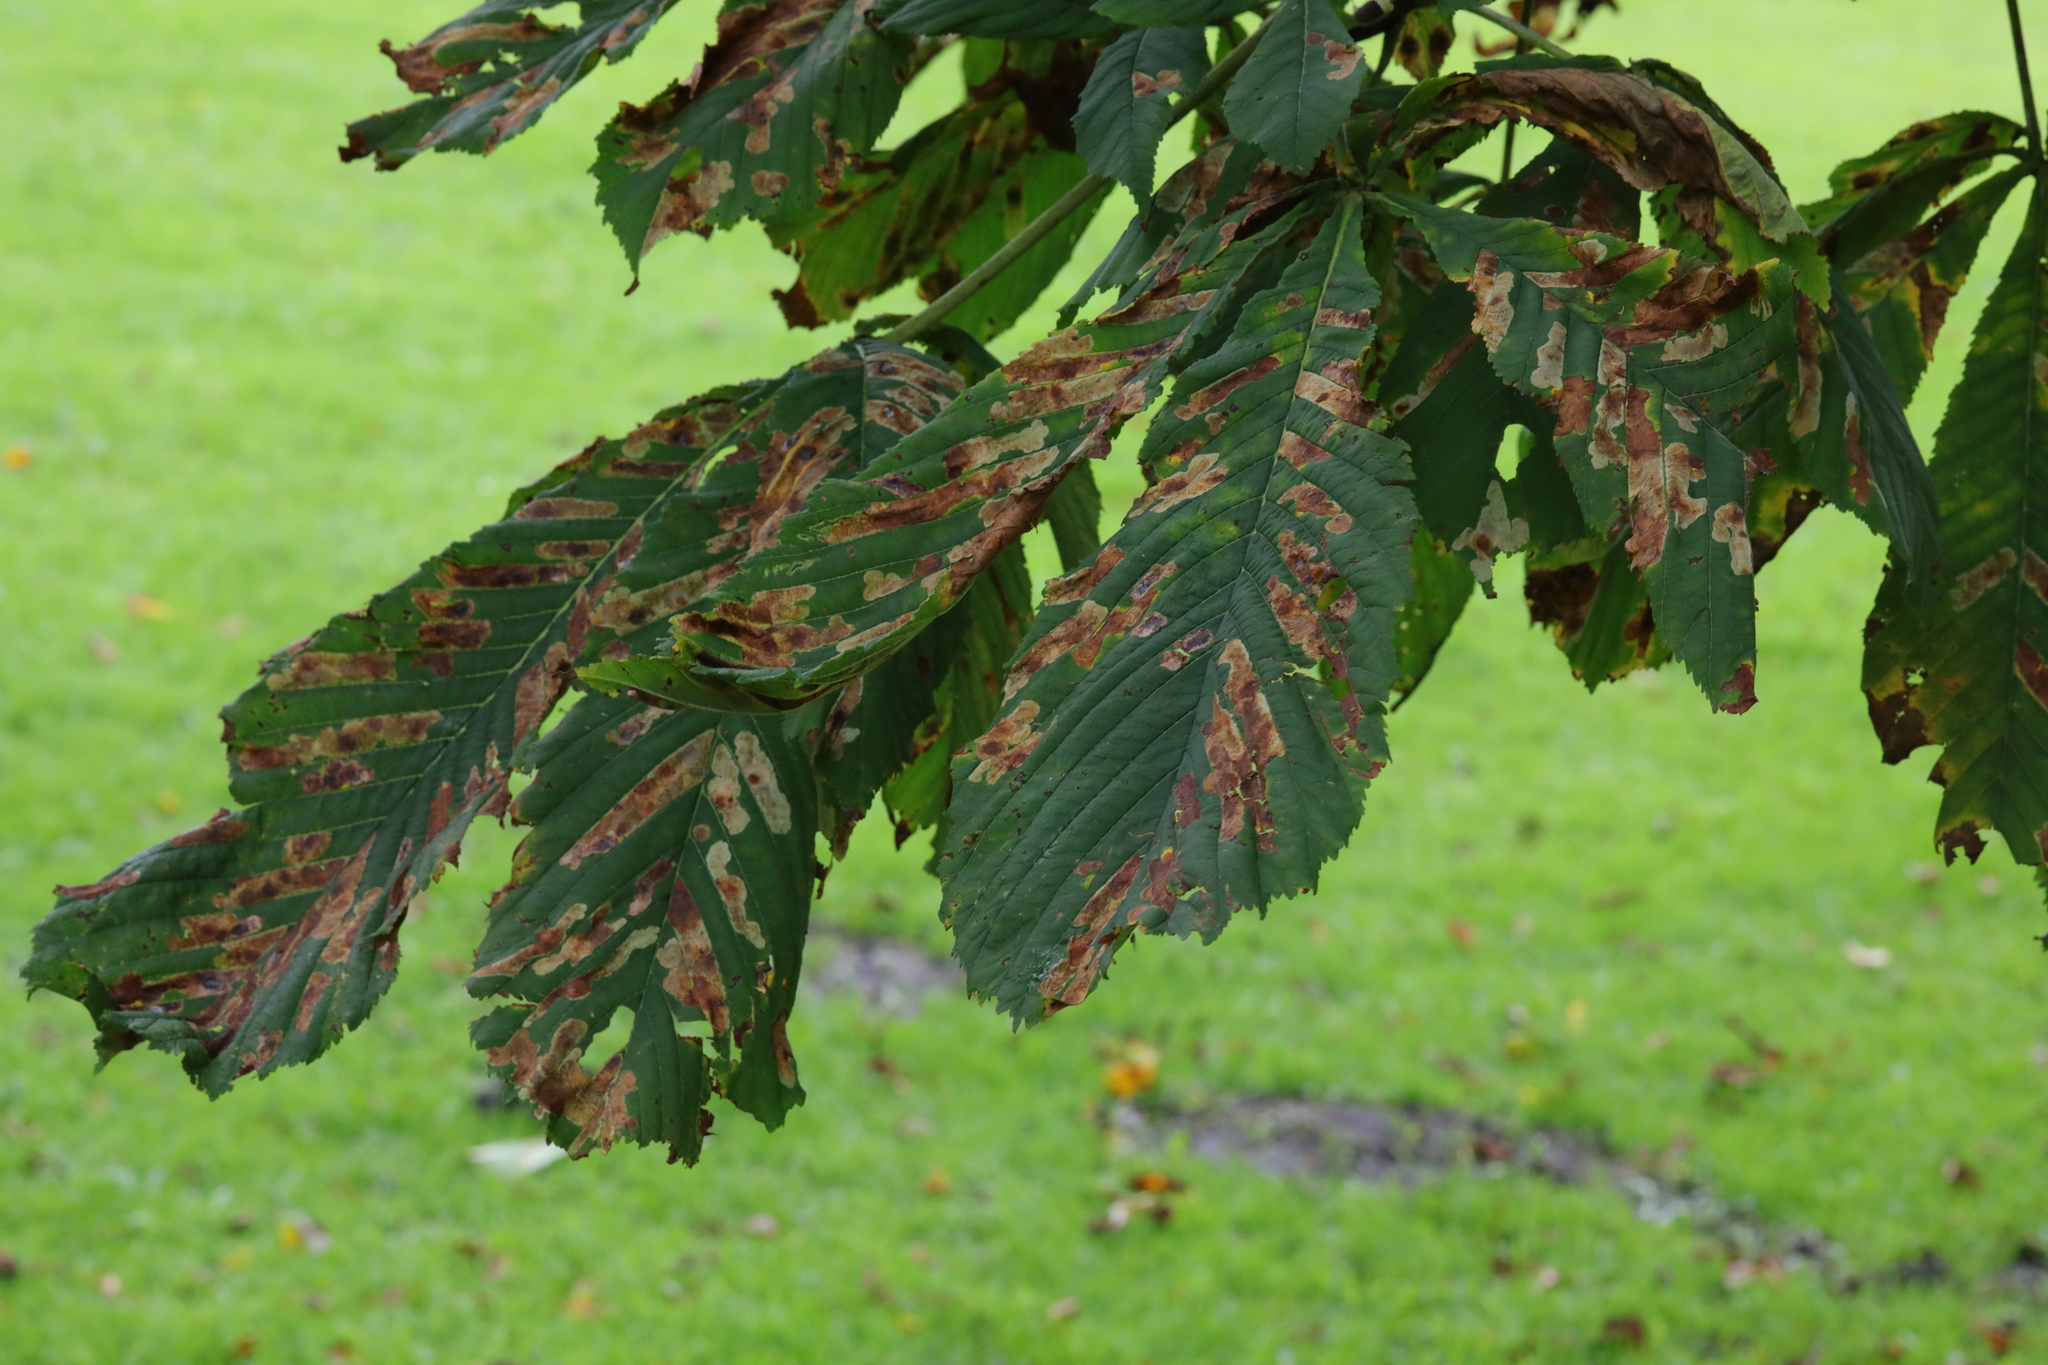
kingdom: Plantae
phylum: Tracheophyta
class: Magnoliopsida
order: Sapindales
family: Sapindaceae
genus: Aesculus
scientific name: Aesculus hippocastanum
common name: Horse-chestnut
